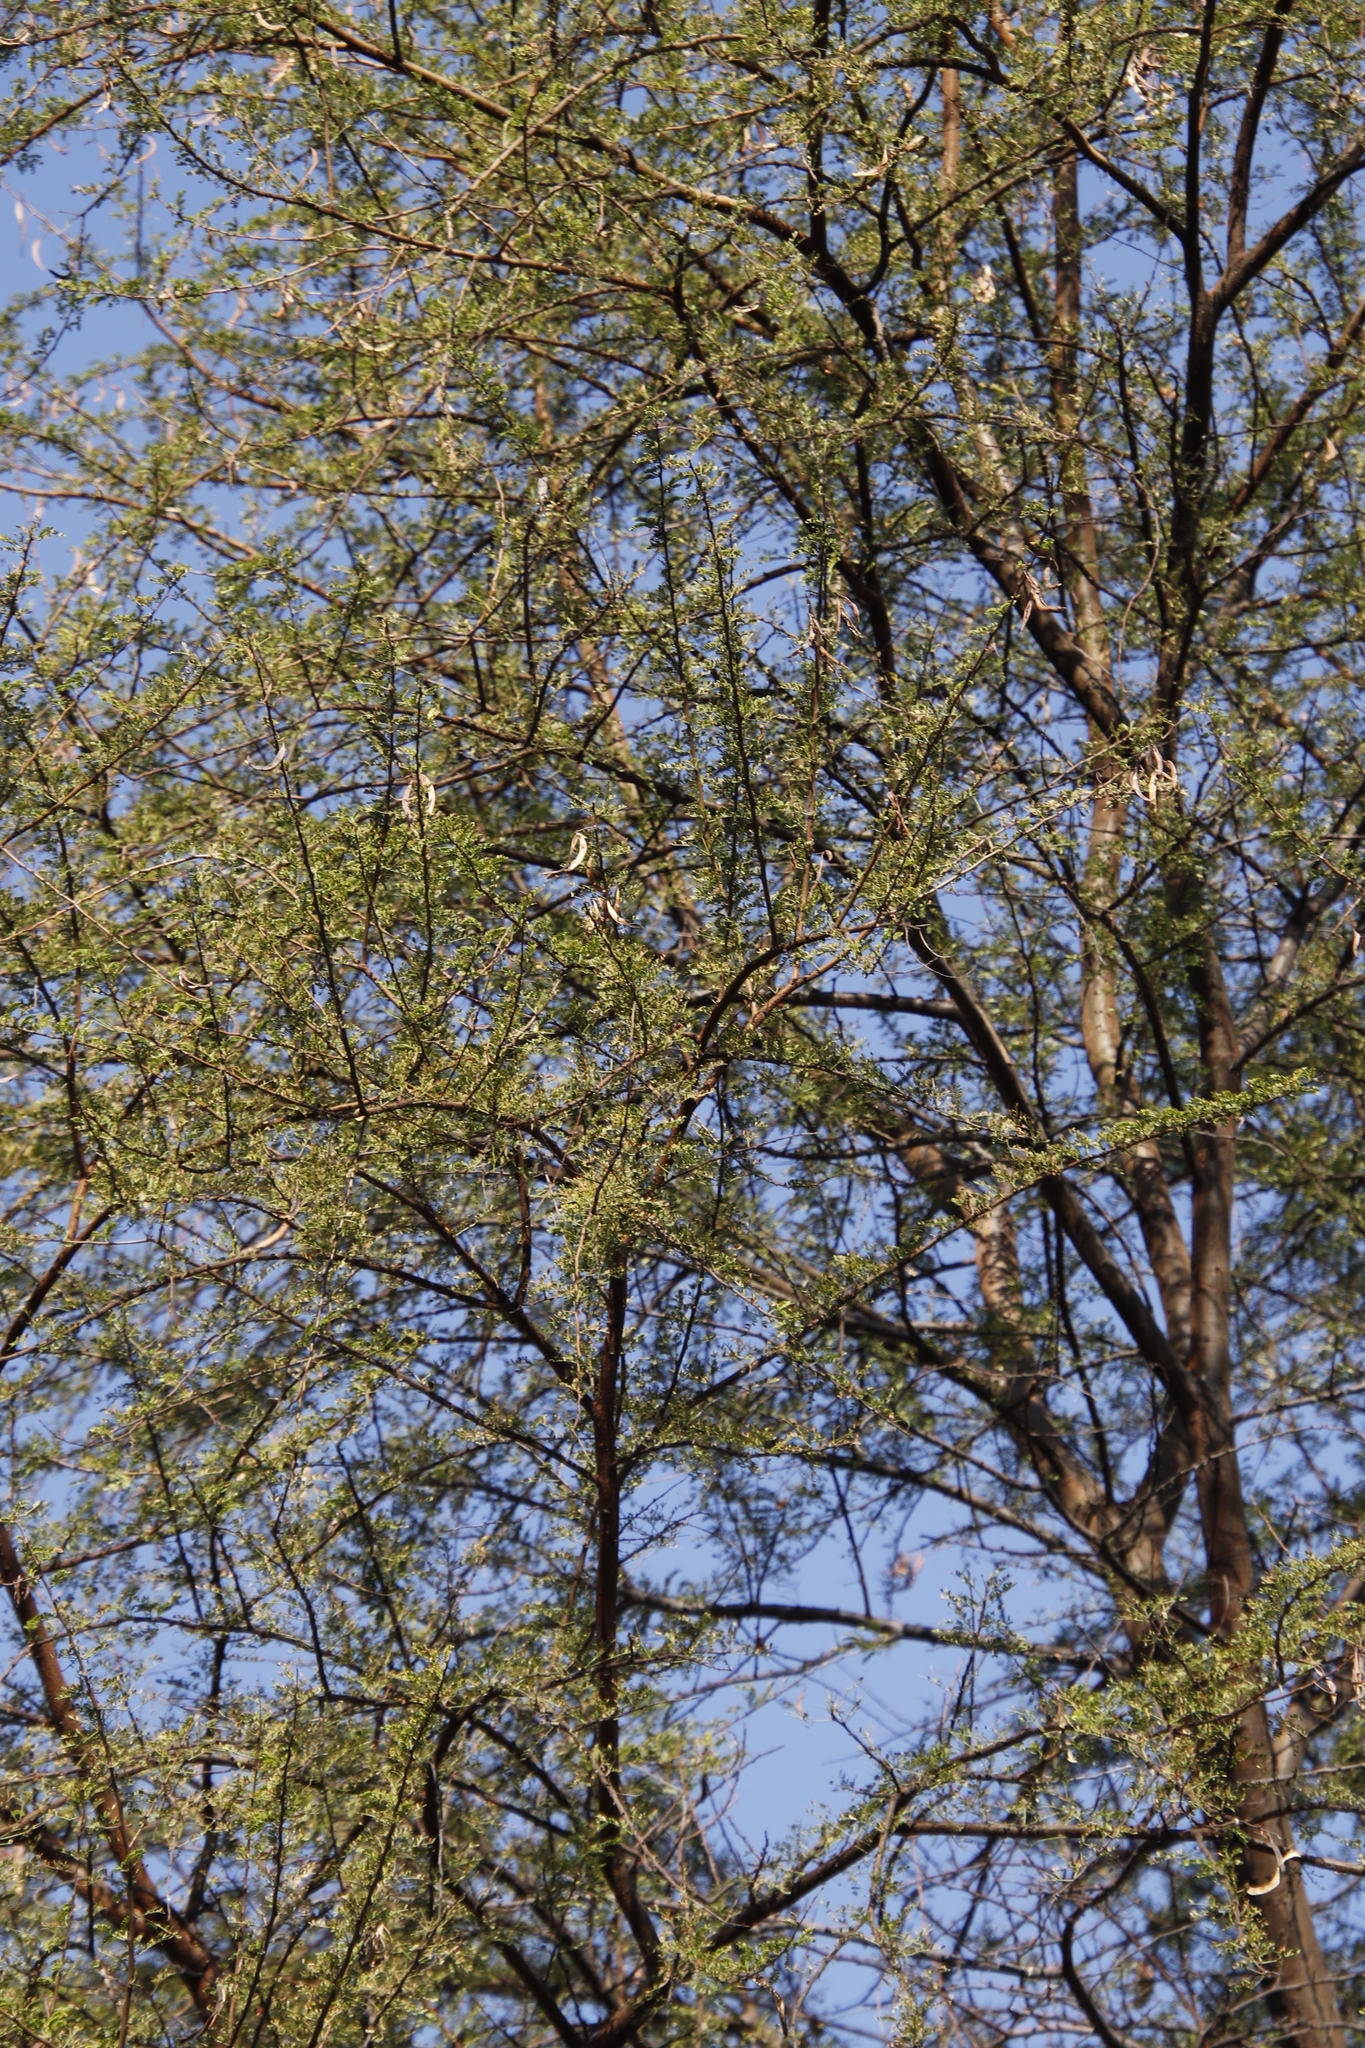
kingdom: Plantae
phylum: Tracheophyta
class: Magnoliopsida
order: Fabales
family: Fabaceae
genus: Vachellia
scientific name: Vachellia karroo
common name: Sweet thorn
